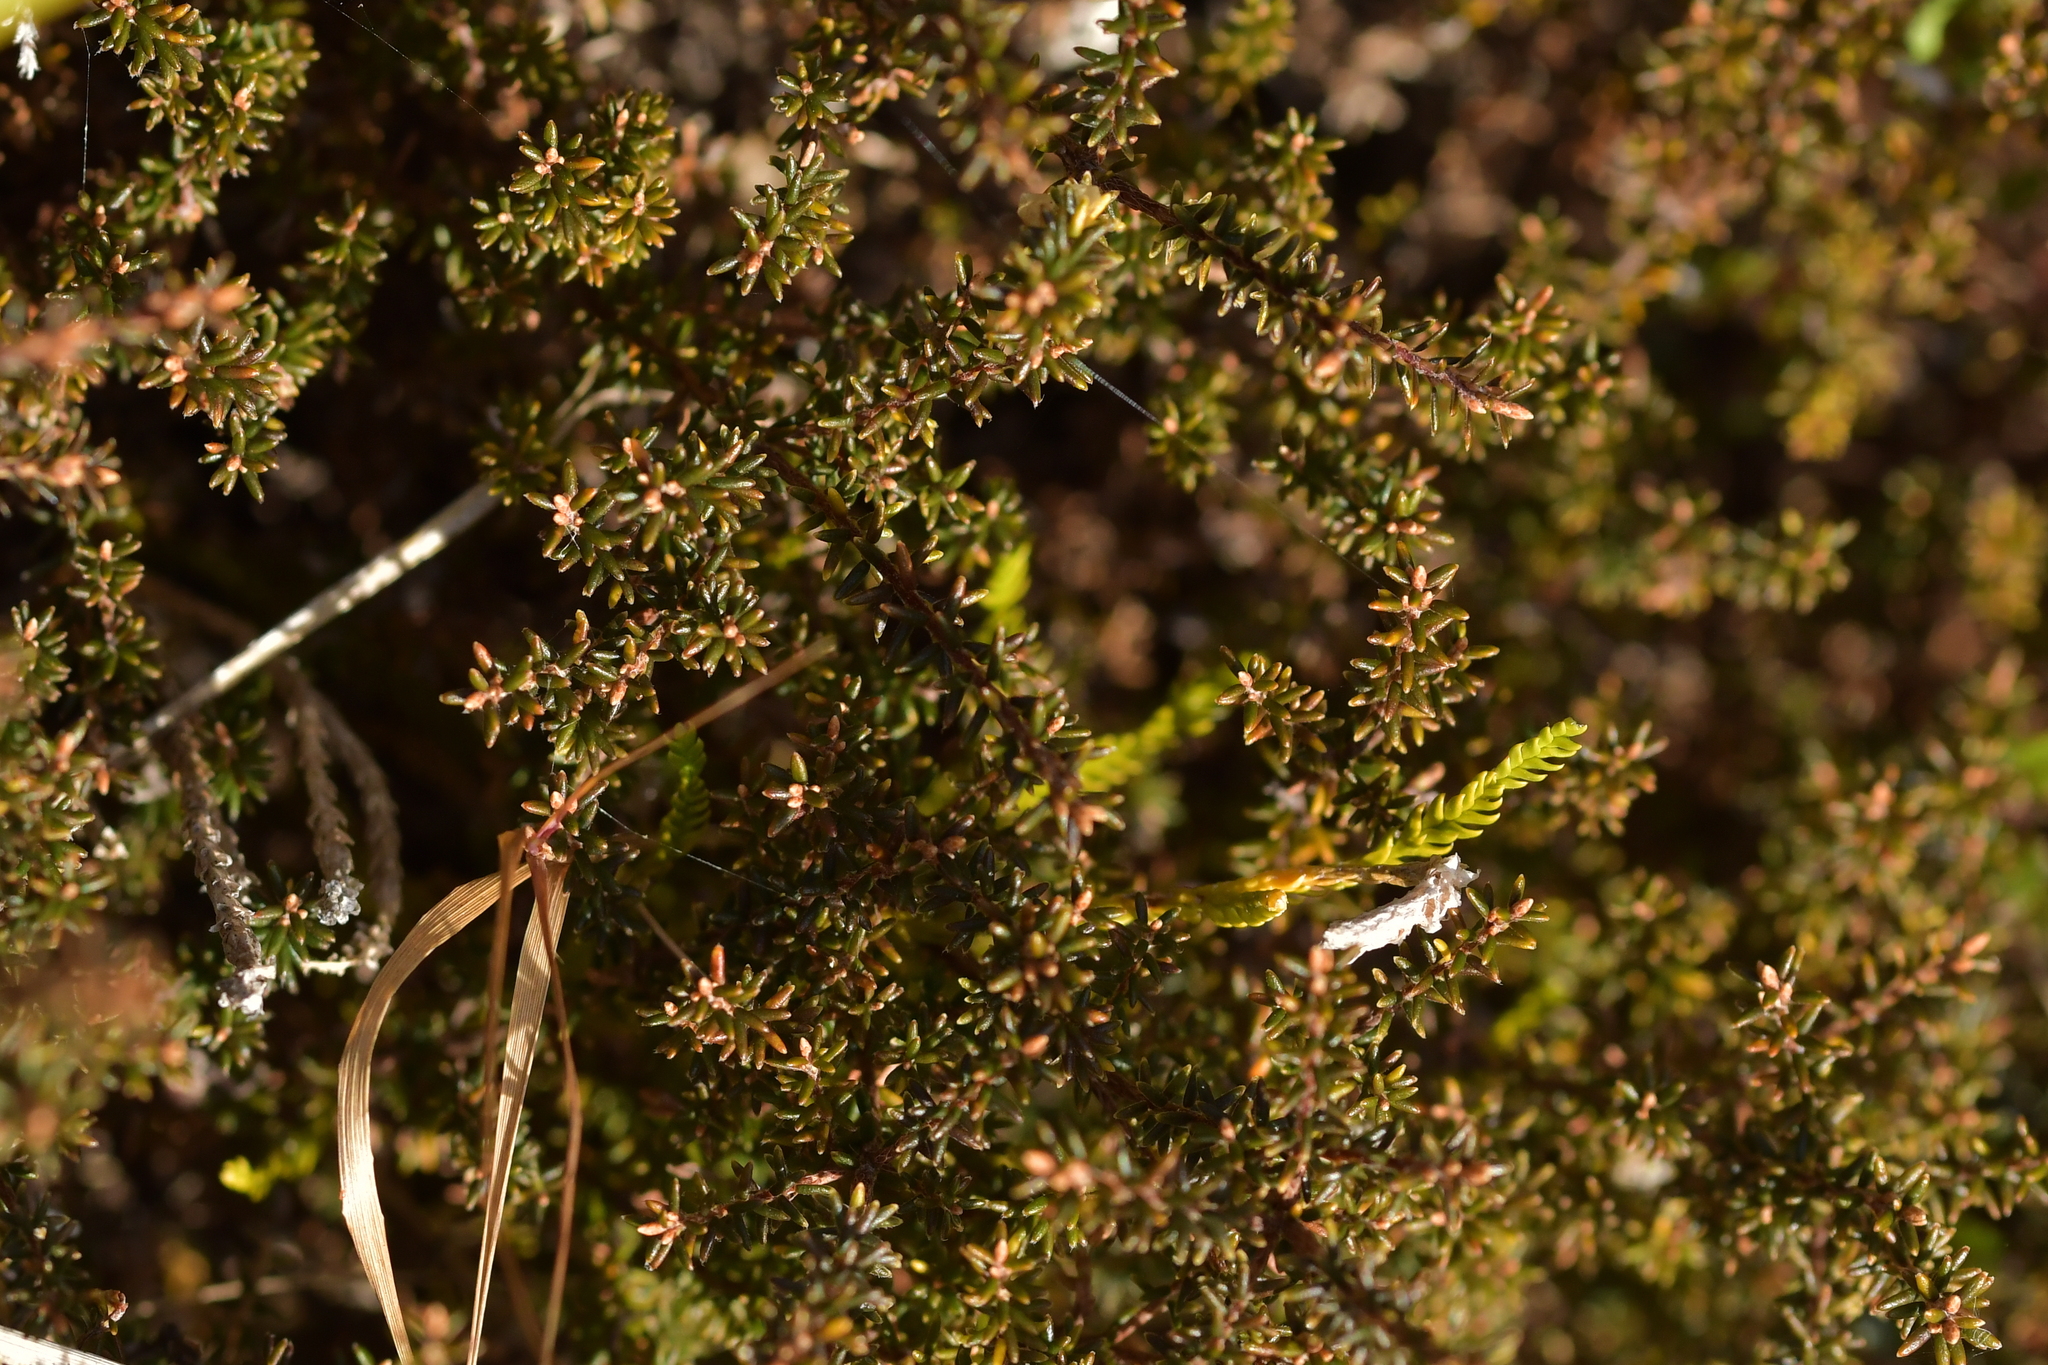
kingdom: Plantae
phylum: Tracheophyta
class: Magnoliopsida
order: Ericales
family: Ericaceae
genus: Androstoma
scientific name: Androstoma empetrifolia
